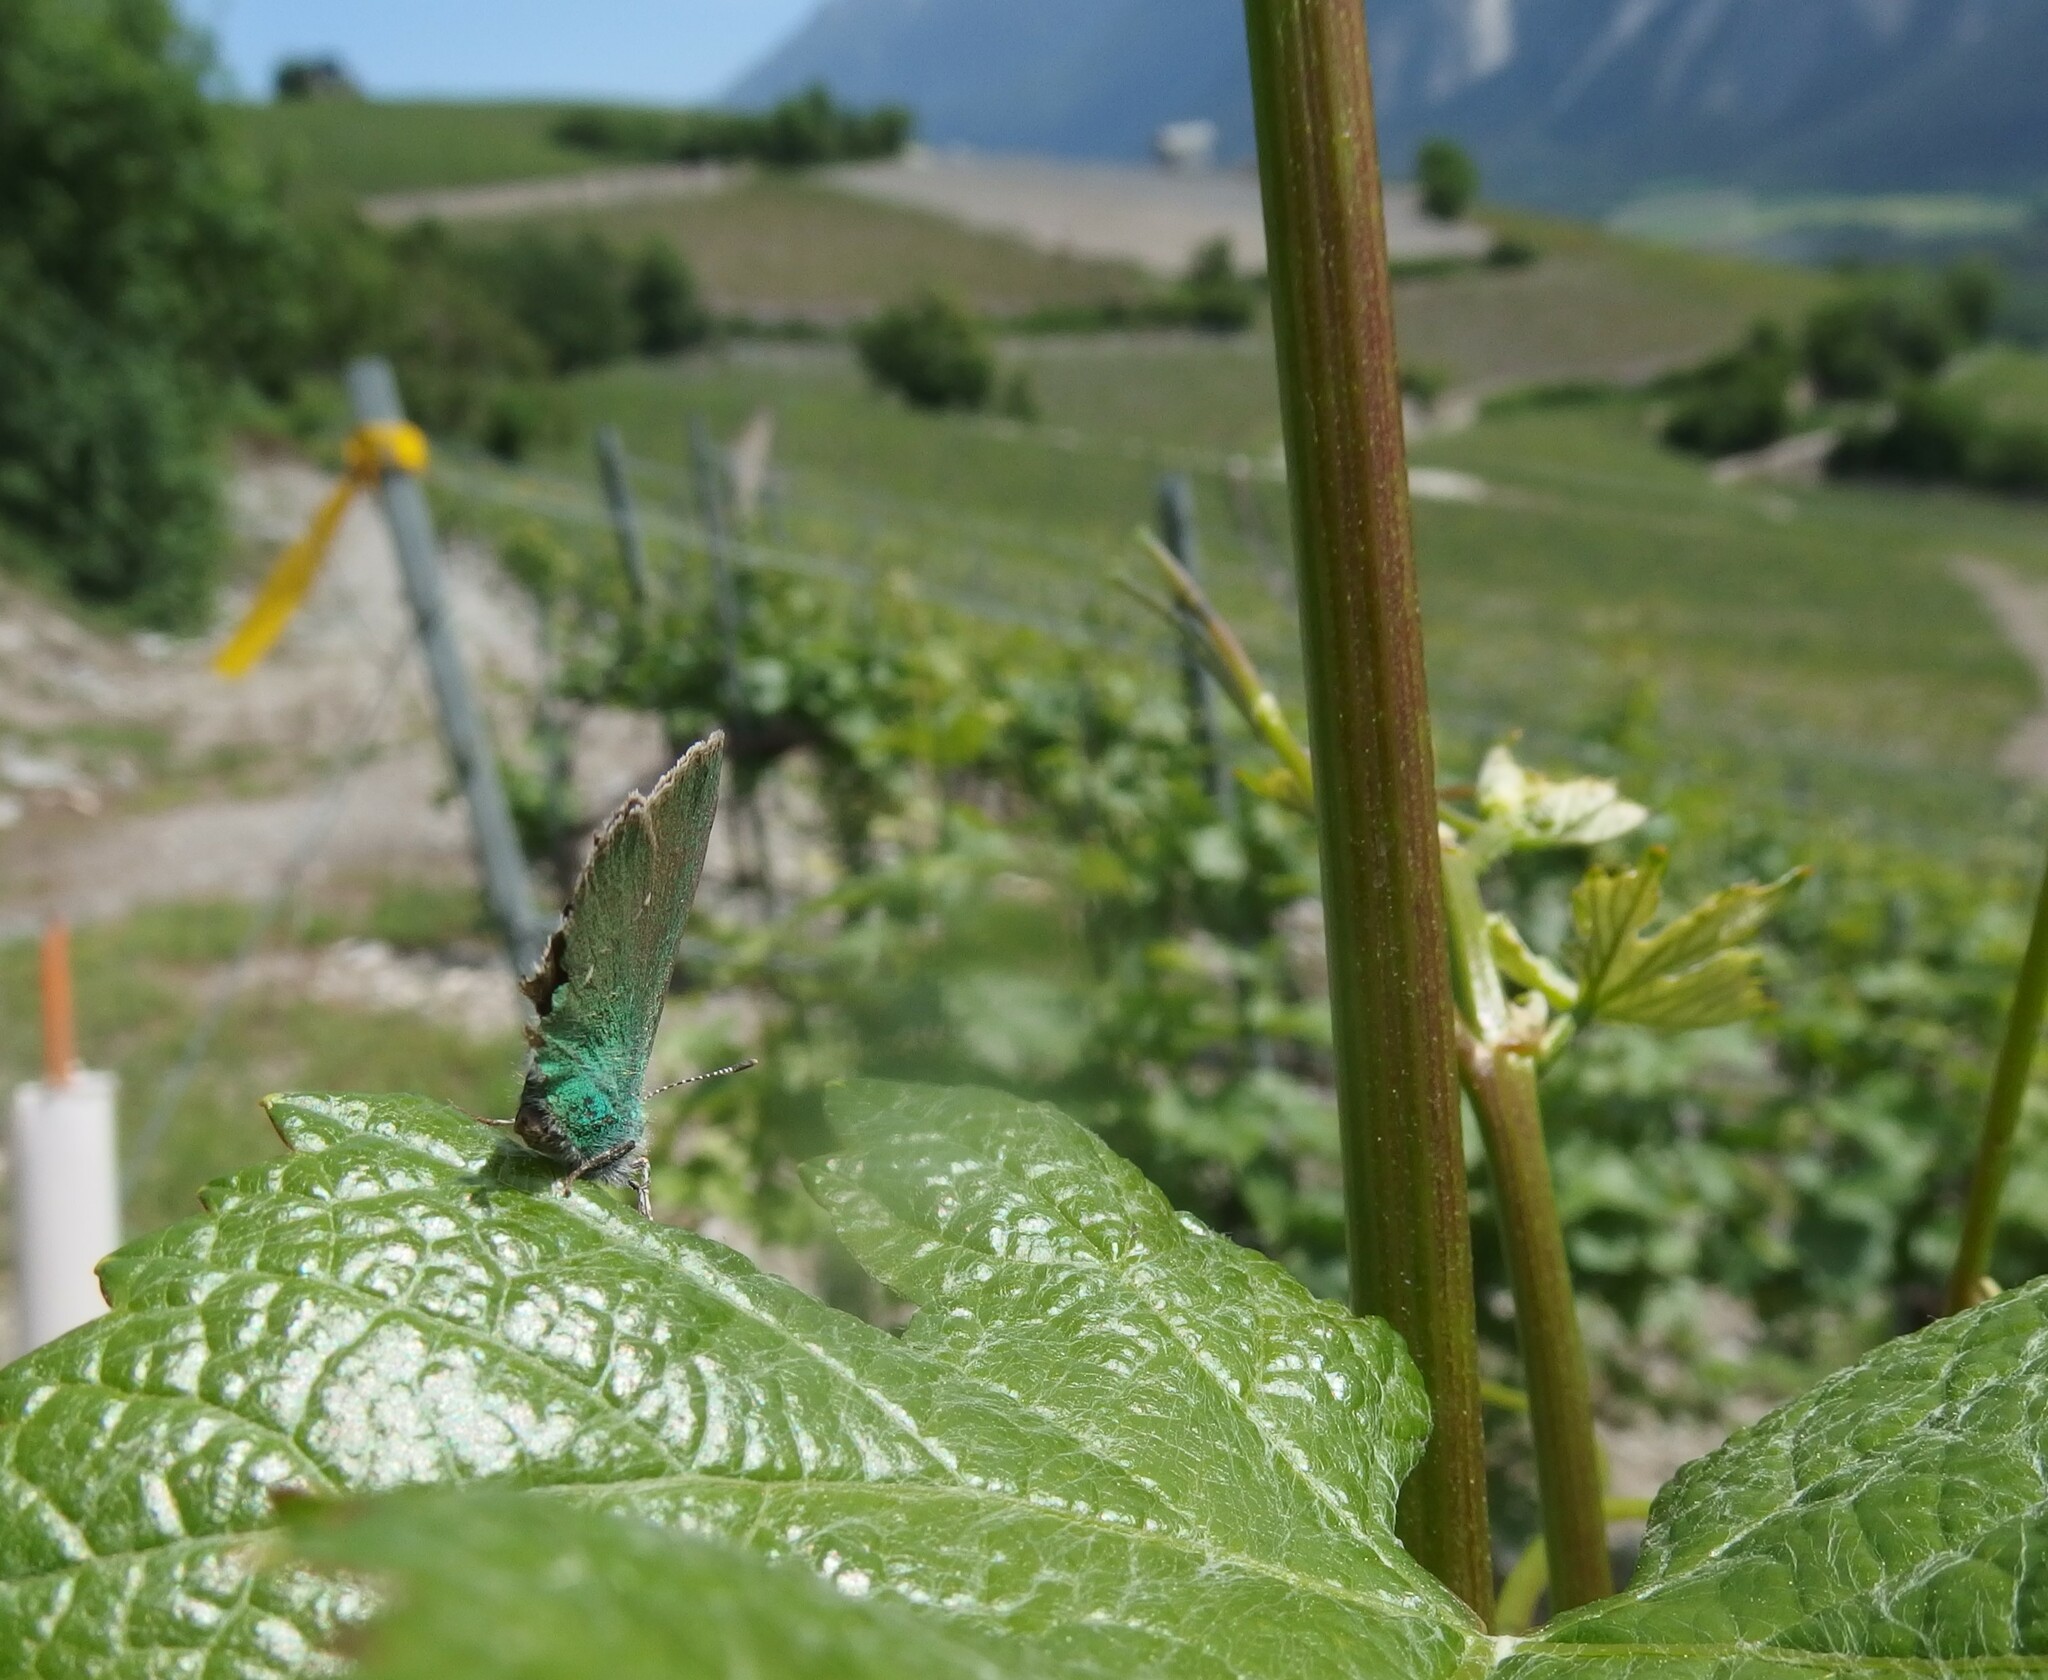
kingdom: Animalia
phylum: Arthropoda
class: Insecta
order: Lepidoptera
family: Lycaenidae
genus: Callophrys
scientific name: Callophrys rubi
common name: Green hairstreak
